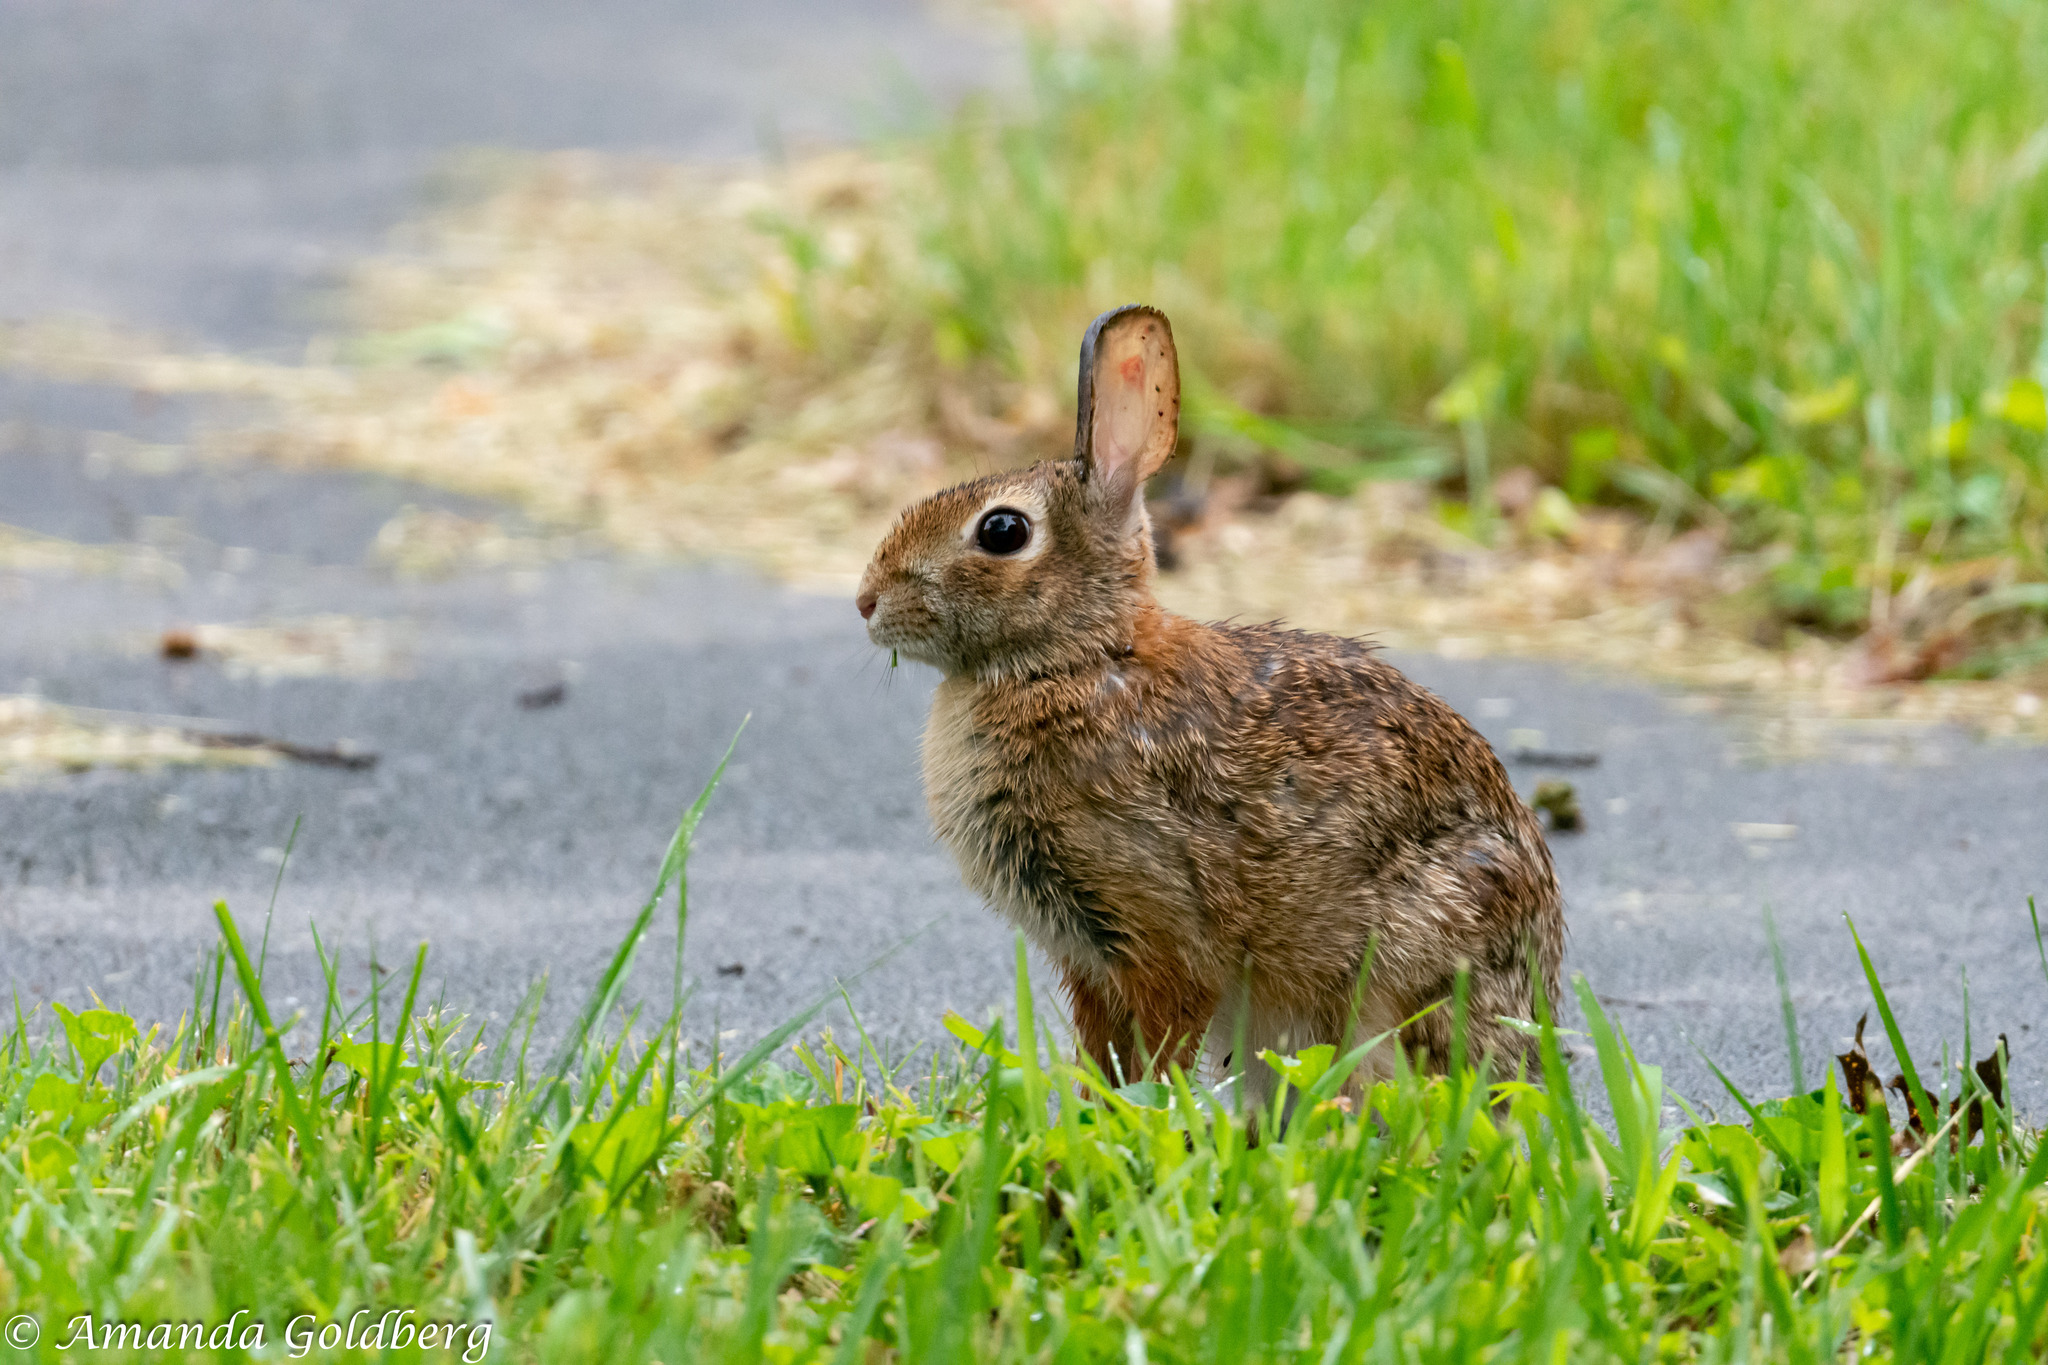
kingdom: Animalia
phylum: Chordata
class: Mammalia
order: Lagomorpha
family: Leporidae
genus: Sylvilagus
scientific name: Sylvilagus floridanus
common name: Eastern cottontail
